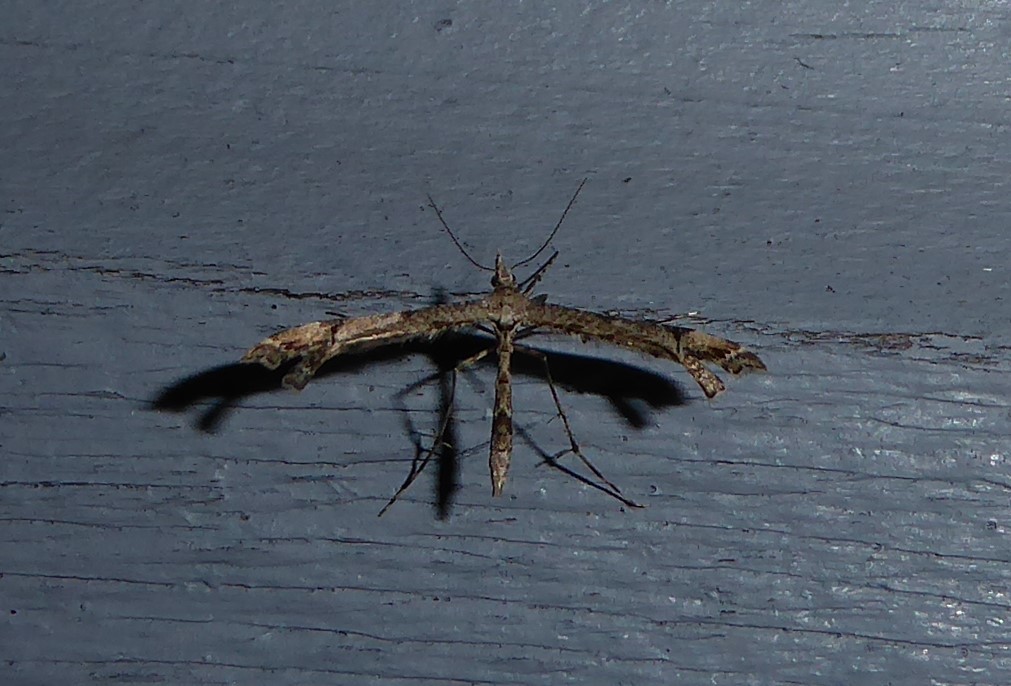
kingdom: Animalia
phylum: Arthropoda
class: Insecta
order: Lepidoptera
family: Pterophoridae
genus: Amblyptilia
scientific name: Amblyptilia repletalis
